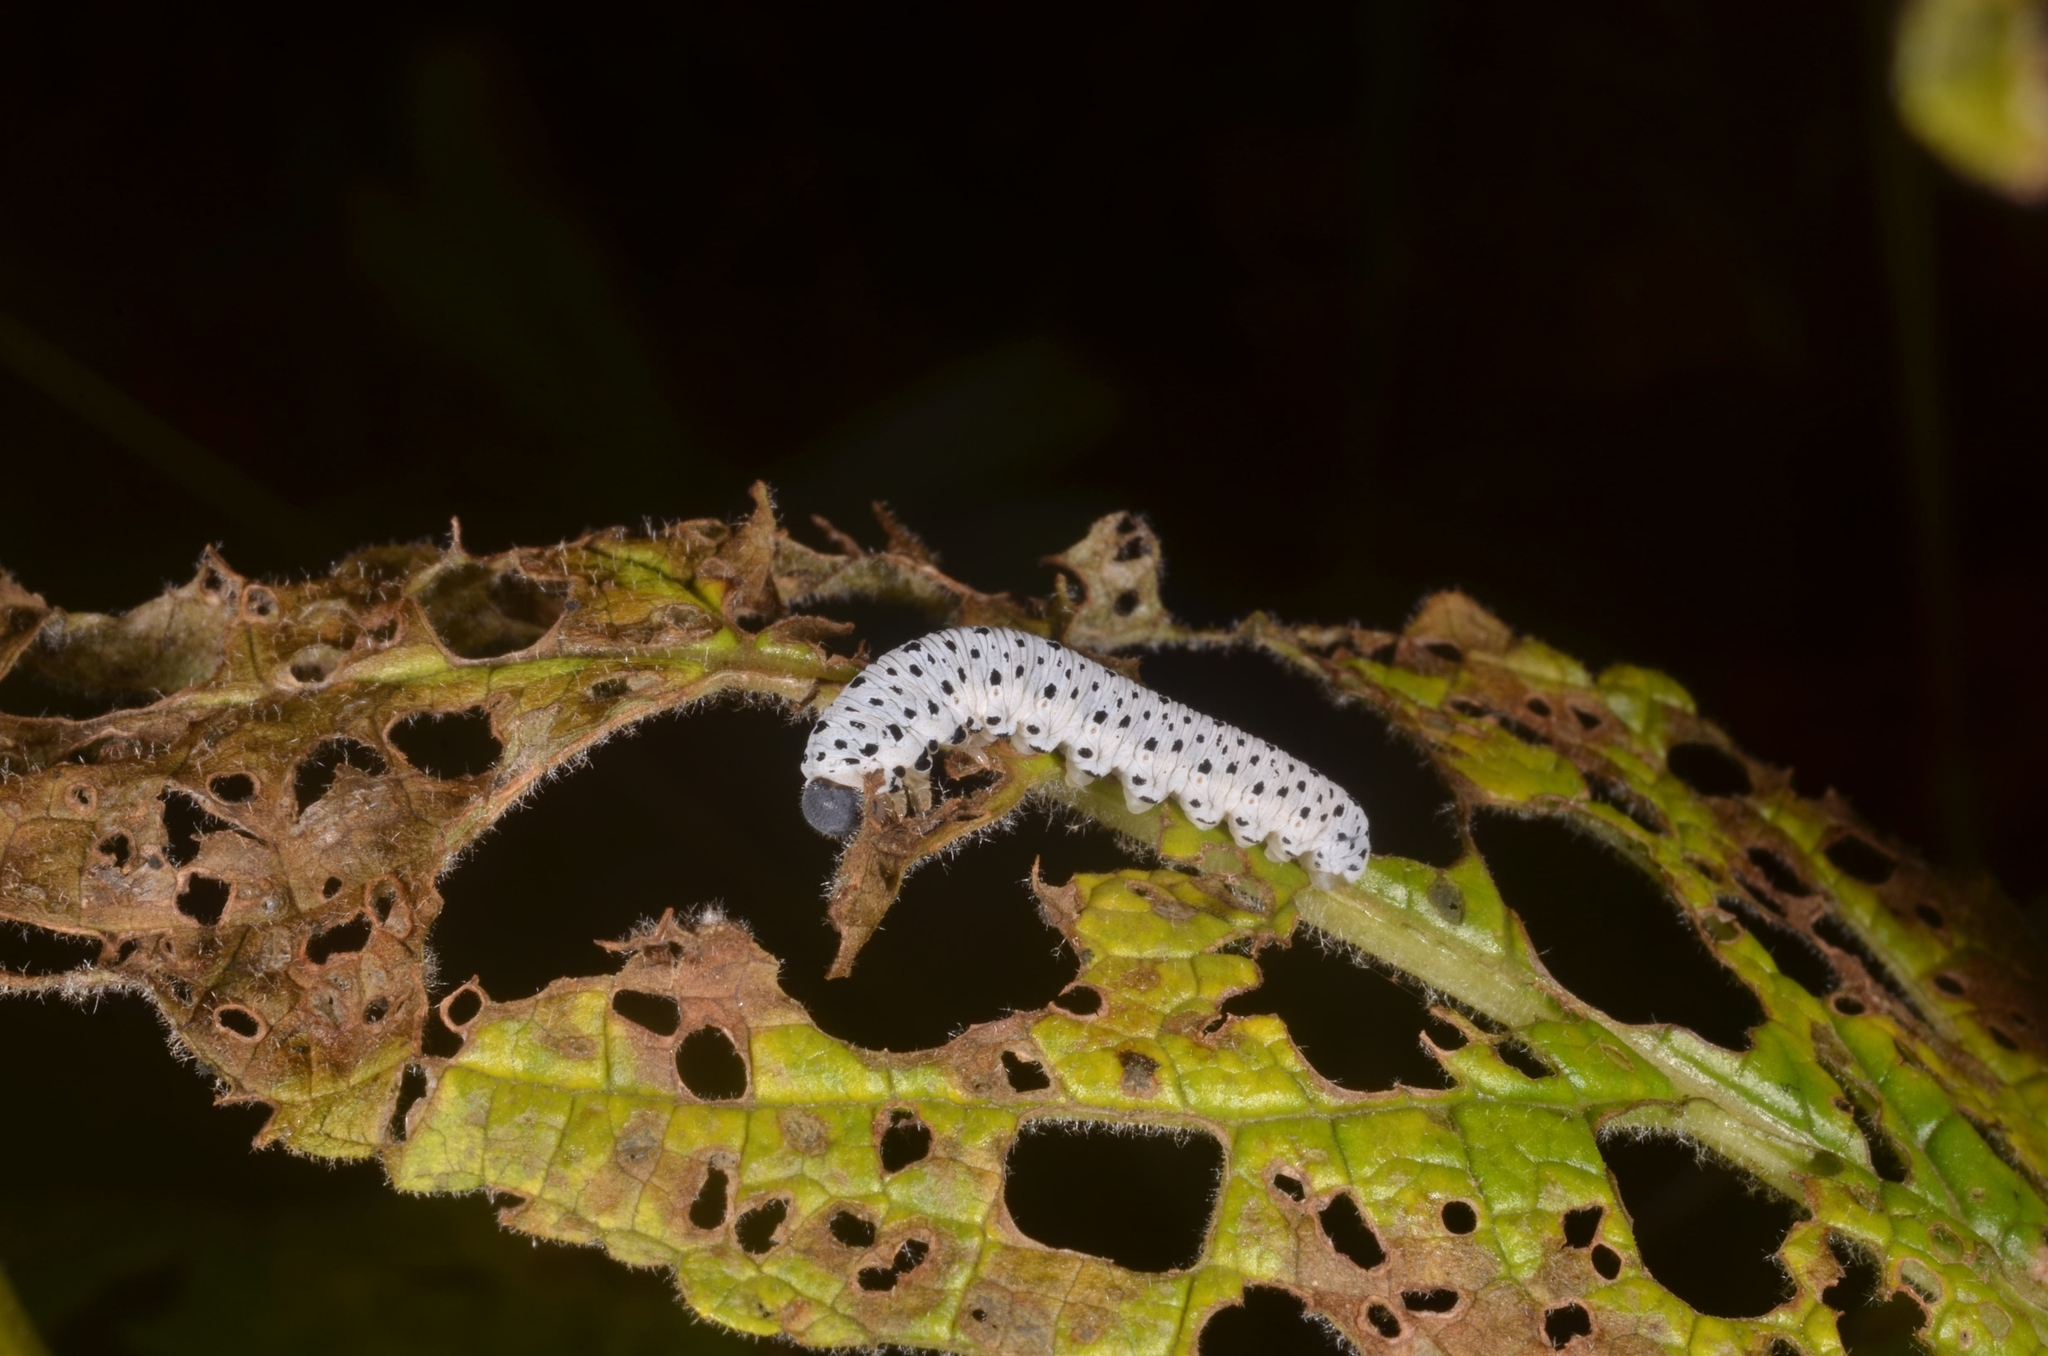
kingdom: Animalia
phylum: Arthropoda
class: Insecta
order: Hymenoptera
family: Tenthredinidae
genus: Tenthredo
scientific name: Tenthredo scrophulariae
